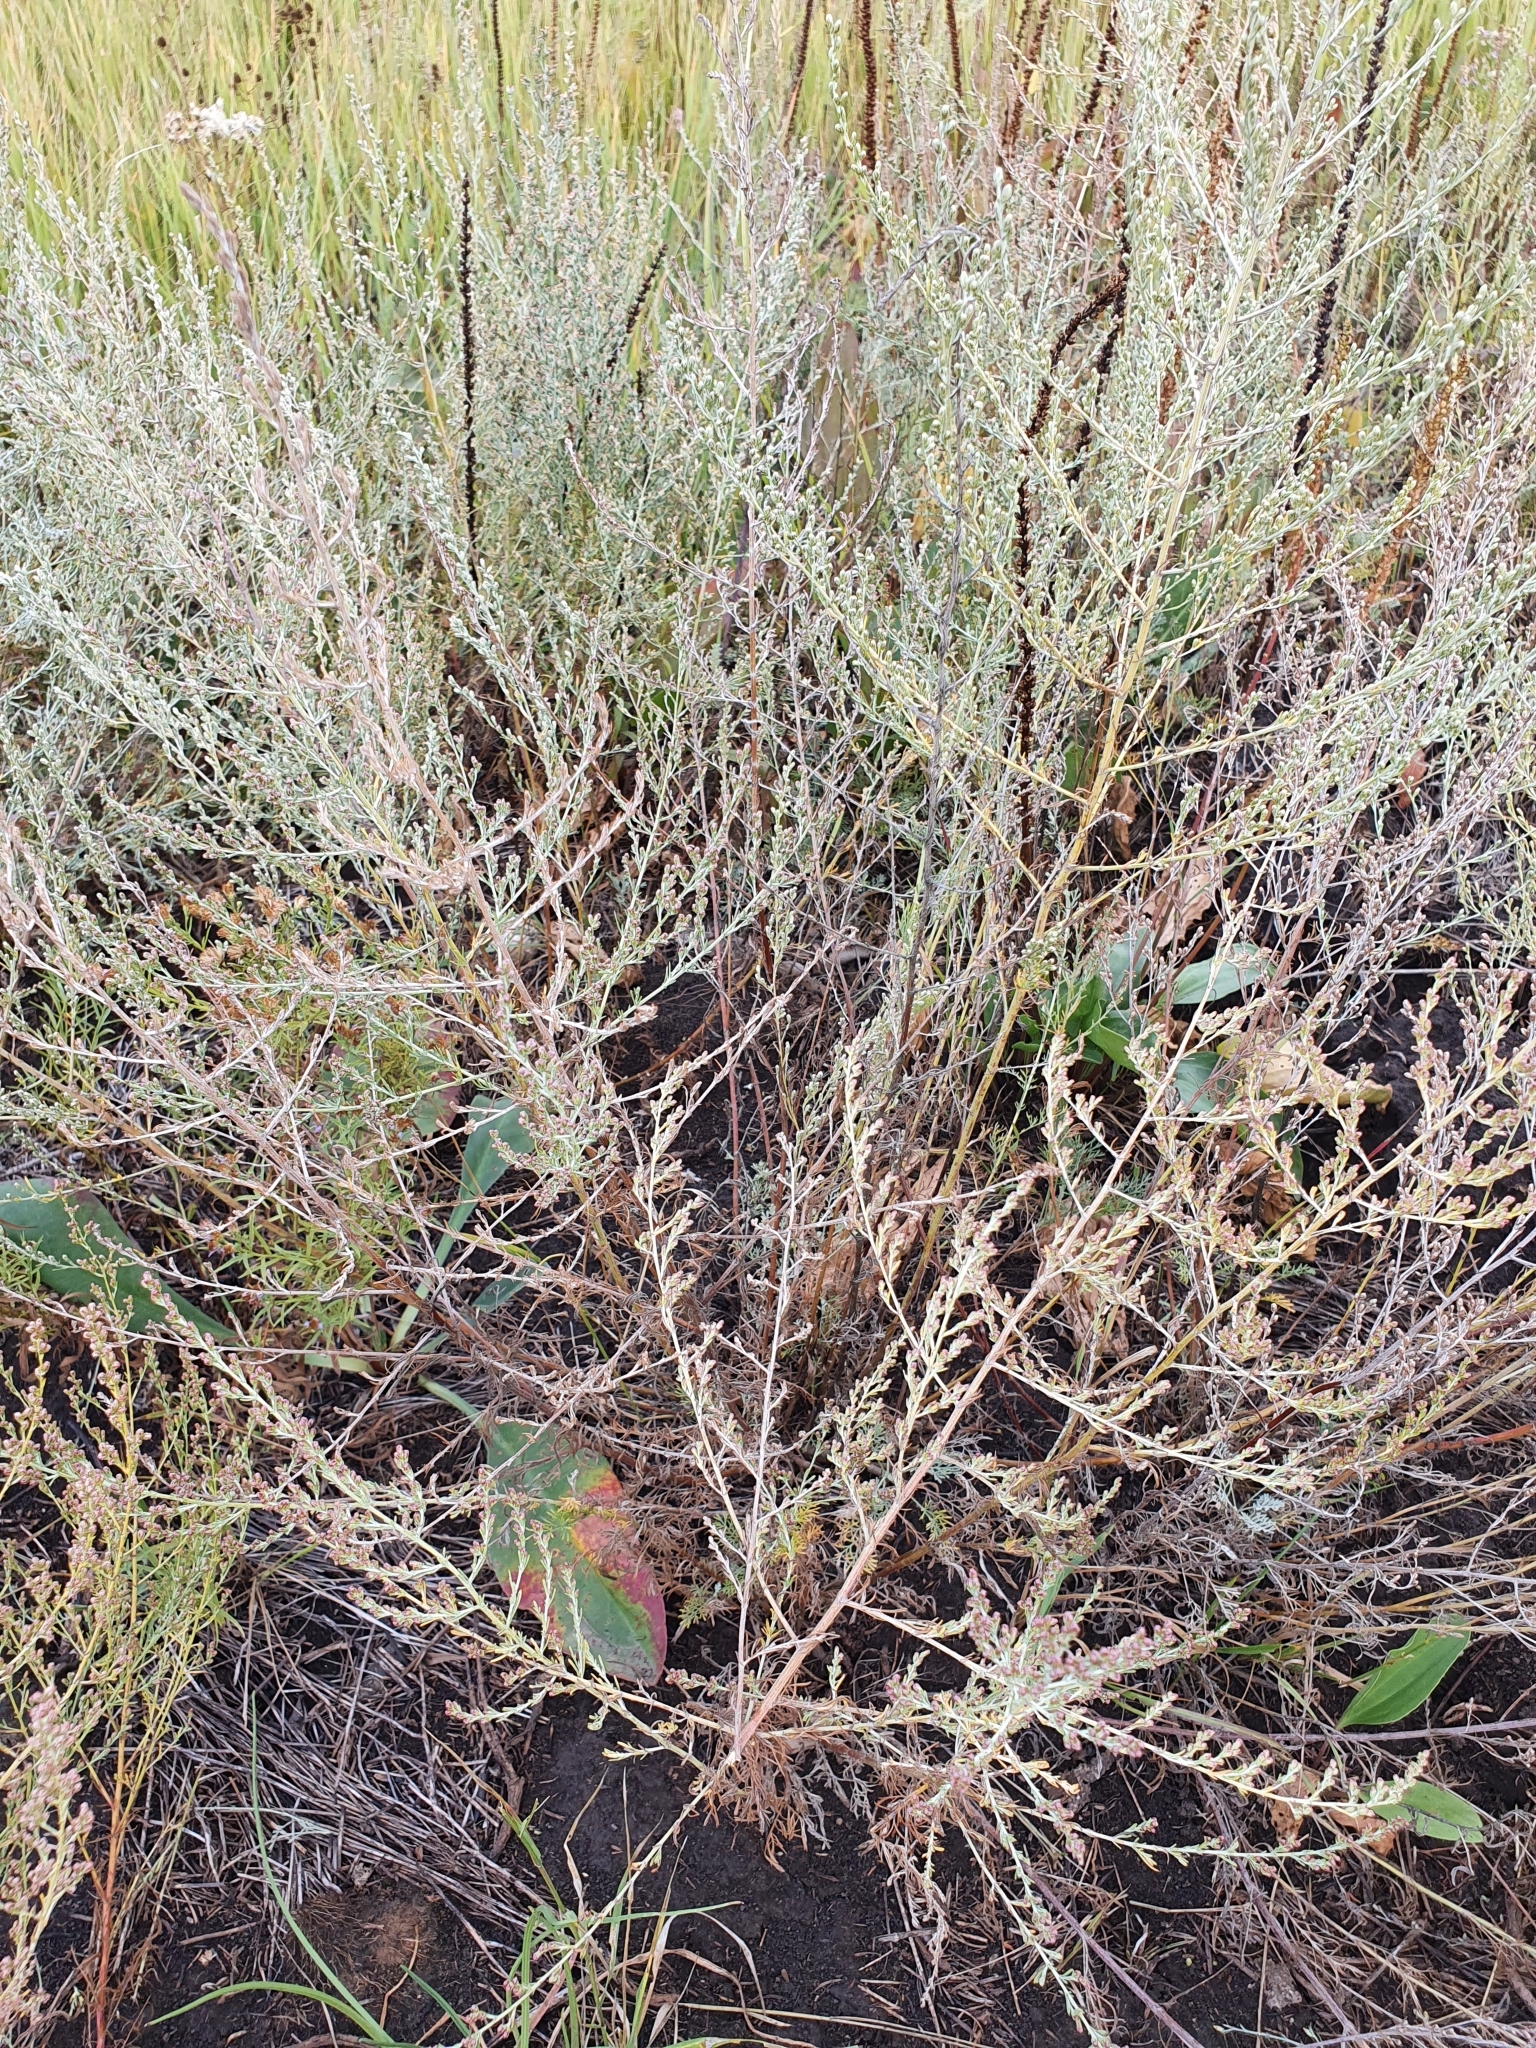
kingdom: Plantae
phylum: Tracheophyta
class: Magnoliopsida
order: Asterales
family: Asteraceae
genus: Artemisia
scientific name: Artemisia santonicum
